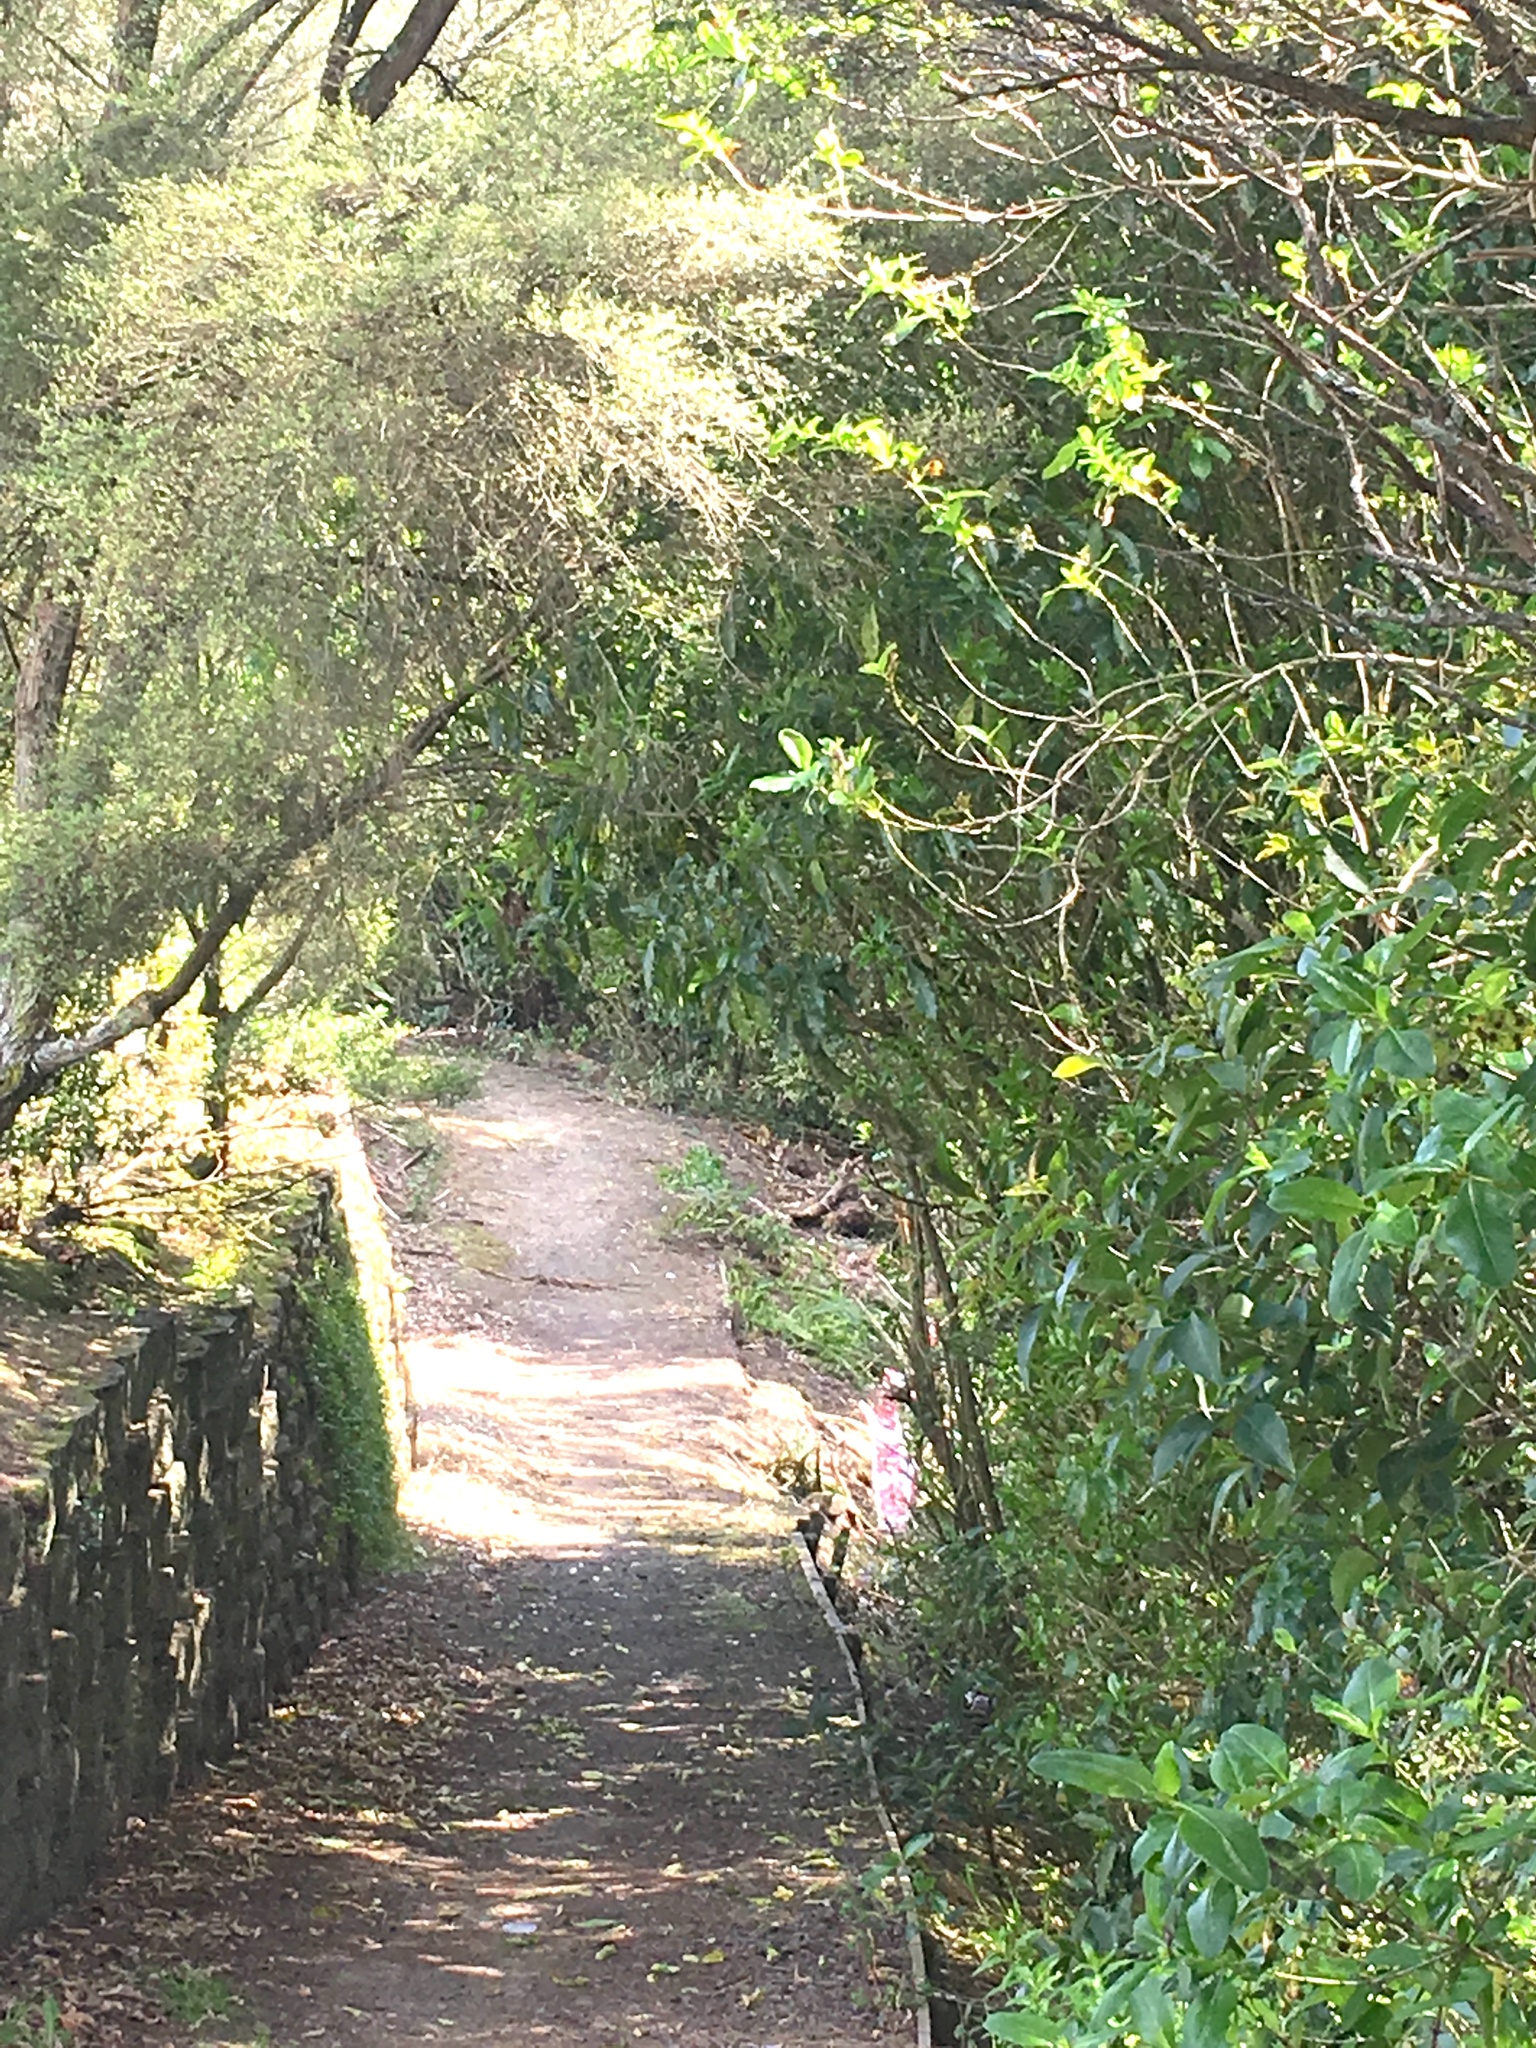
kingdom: Plantae
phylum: Tracheophyta
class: Magnoliopsida
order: Dipsacales
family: Caprifoliaceae
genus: Lonicera
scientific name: Lonicera japonica
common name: Japanese honeysuckle
